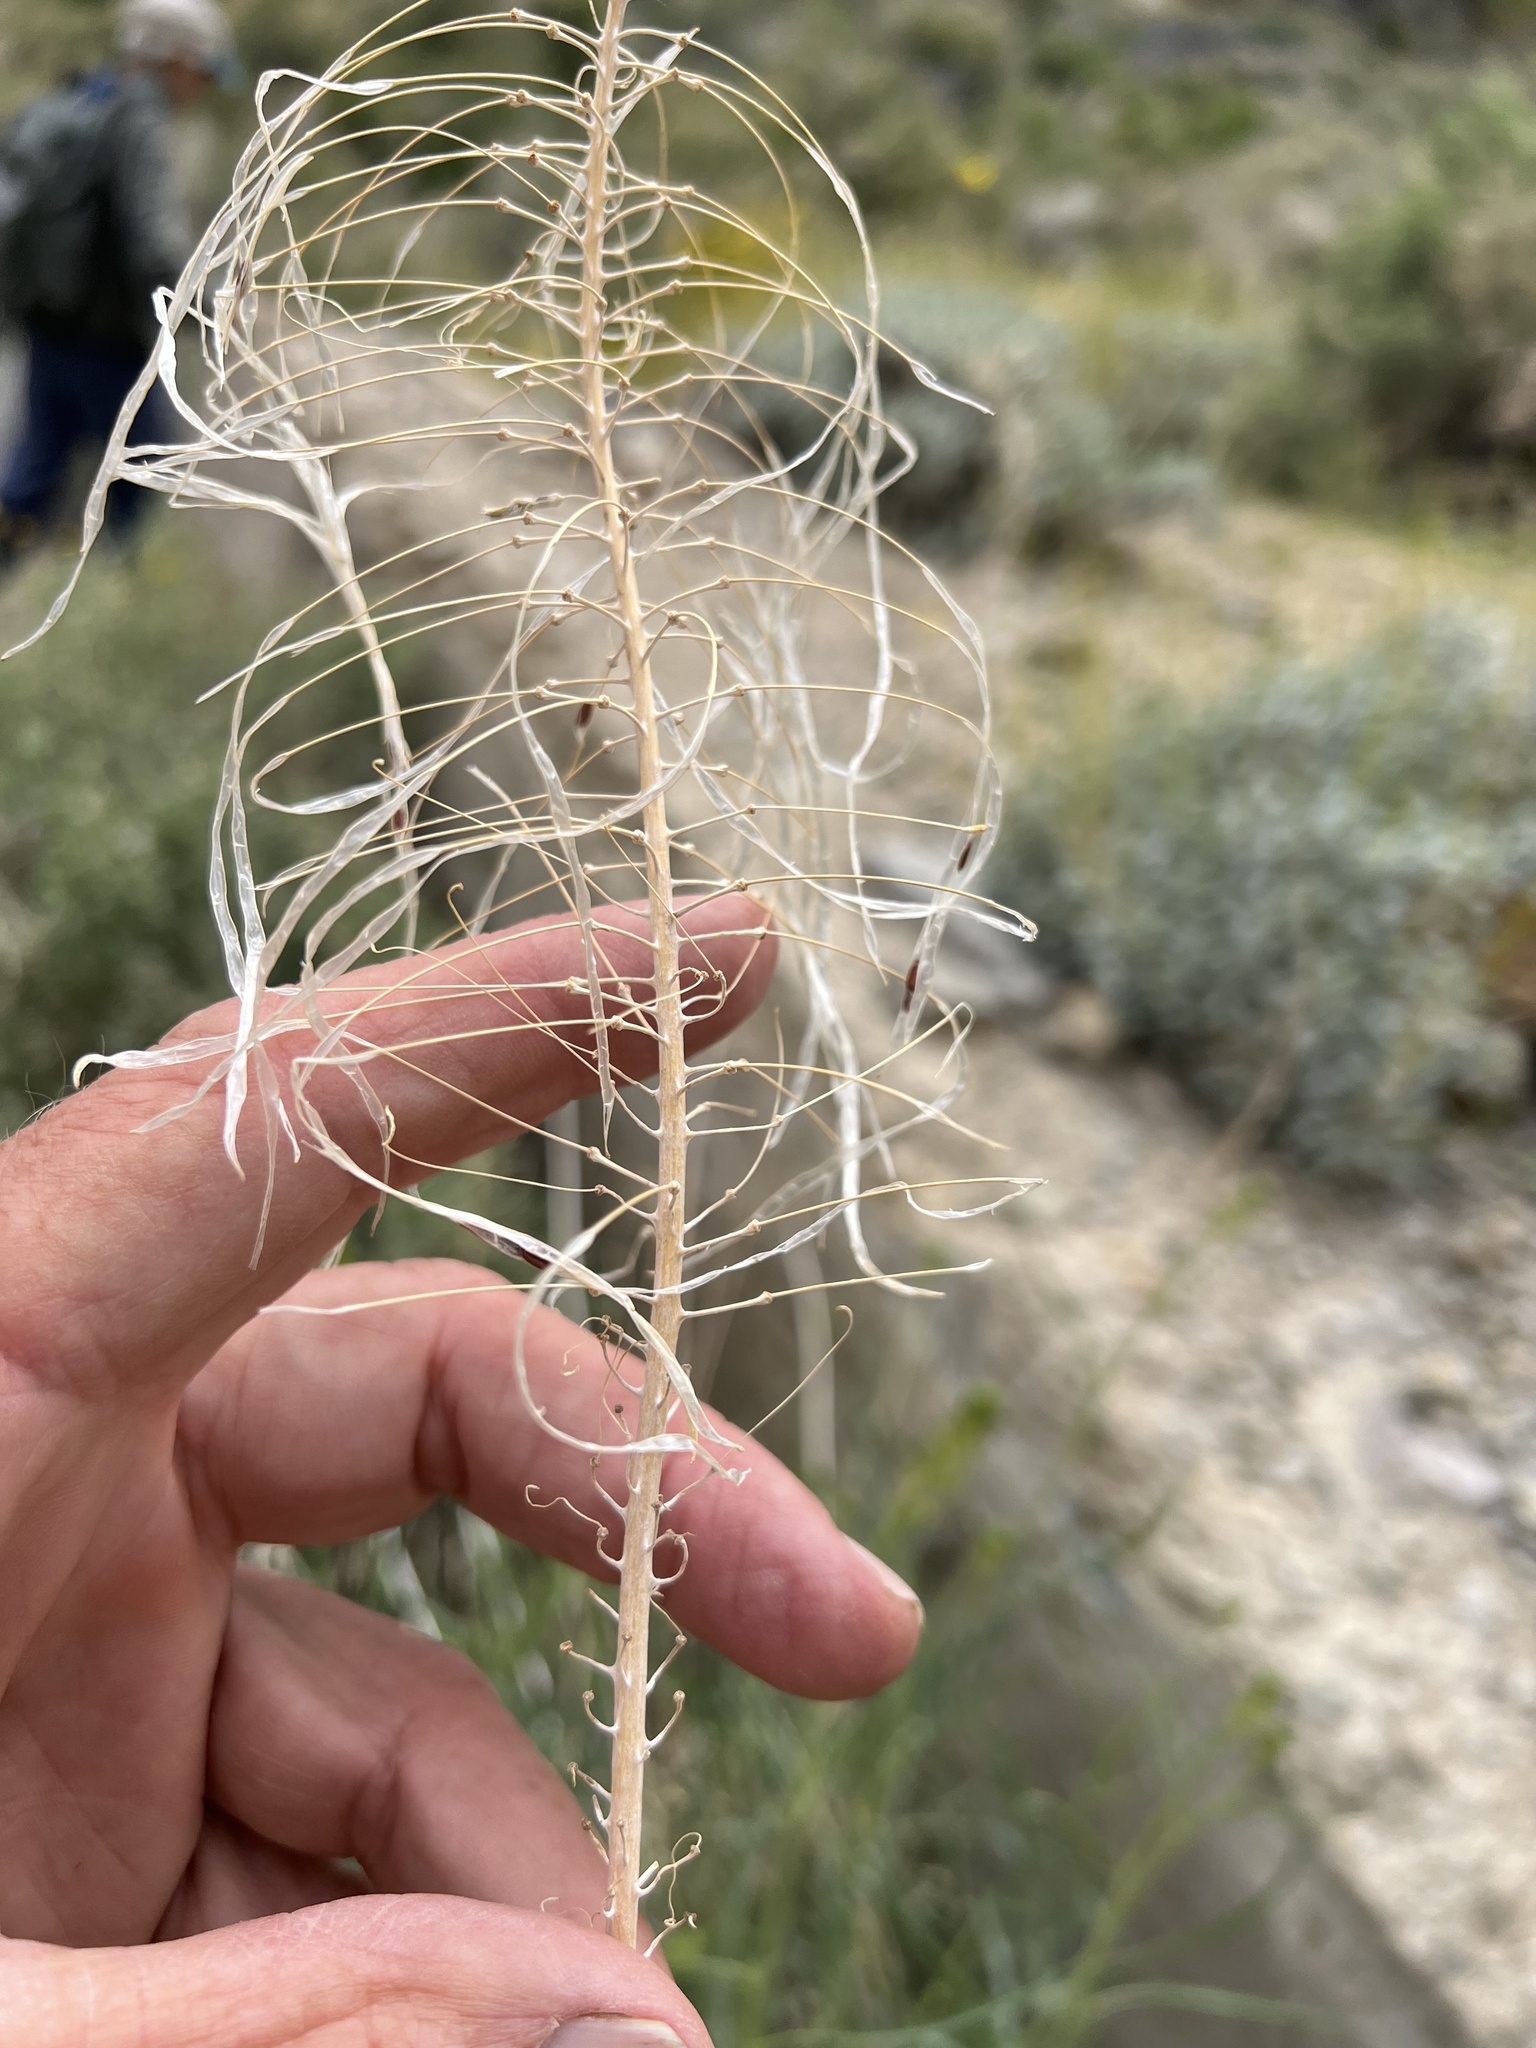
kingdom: Plantae
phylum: Tracheophyta
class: Magnoliopsida
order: Brassicales
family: Brassicaceae
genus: Stanleya
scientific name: Stanleya pinnata
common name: Prince's-plume
